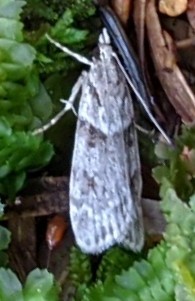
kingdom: Animalia
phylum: Arthropoda
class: Insecta
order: Lepidoptera
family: Crambidae
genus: Scoparia
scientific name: Scoparia biplagialis
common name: Double-striped scoparia moth
